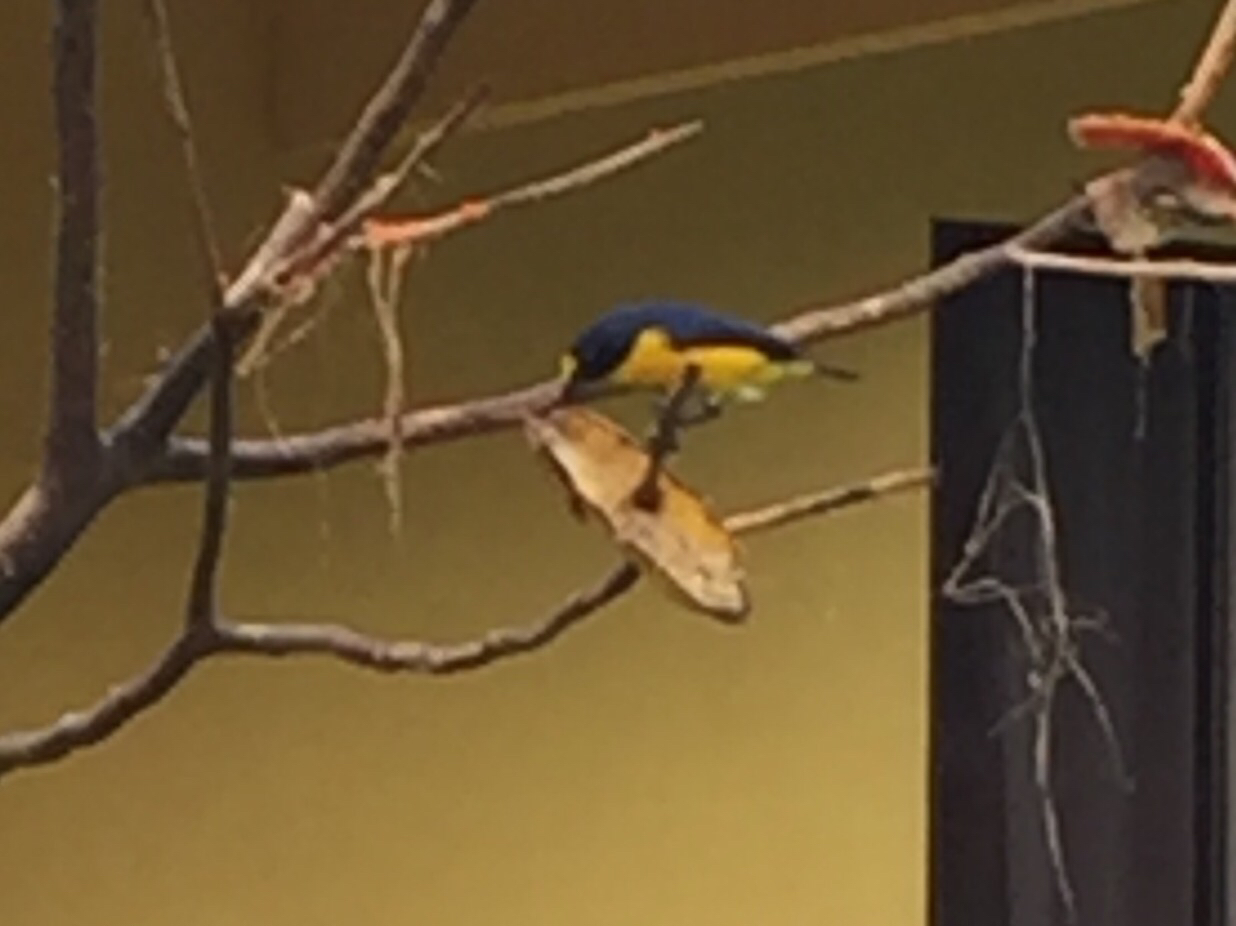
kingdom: Animalia
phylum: Chordata
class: Aves
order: Passeriformes
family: Fringillidae
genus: Euphonia
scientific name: Euphonia hirundinacea
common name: Yellow-throated euphonia
